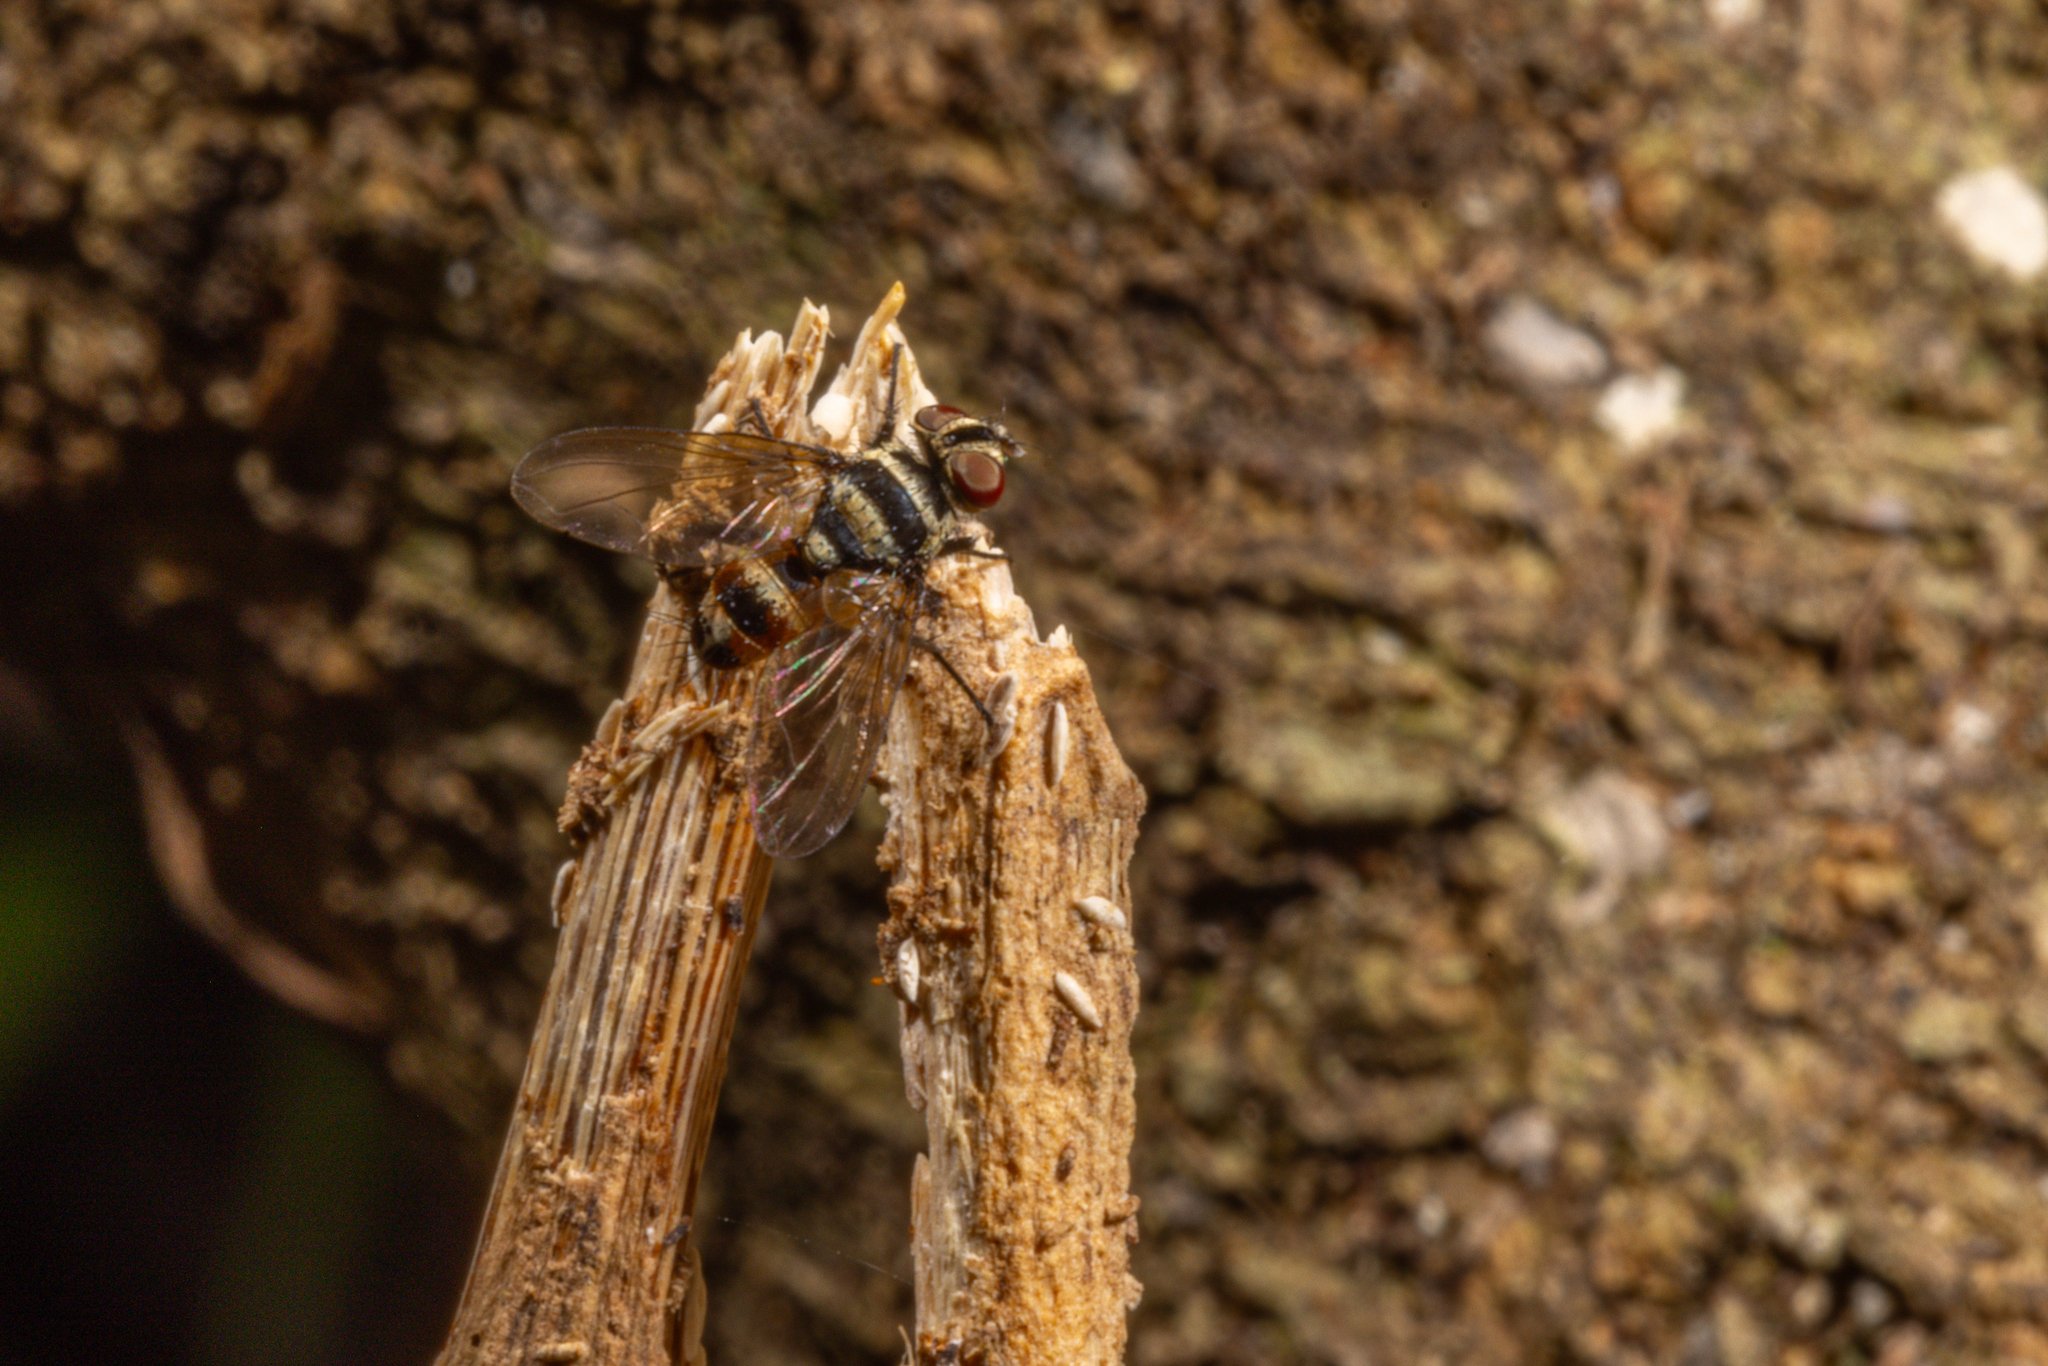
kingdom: Animalia
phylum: Arthropoda
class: Insecta
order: Diptera
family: Tachinidae
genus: Trigonospila
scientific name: Trigonospila brevifacies
